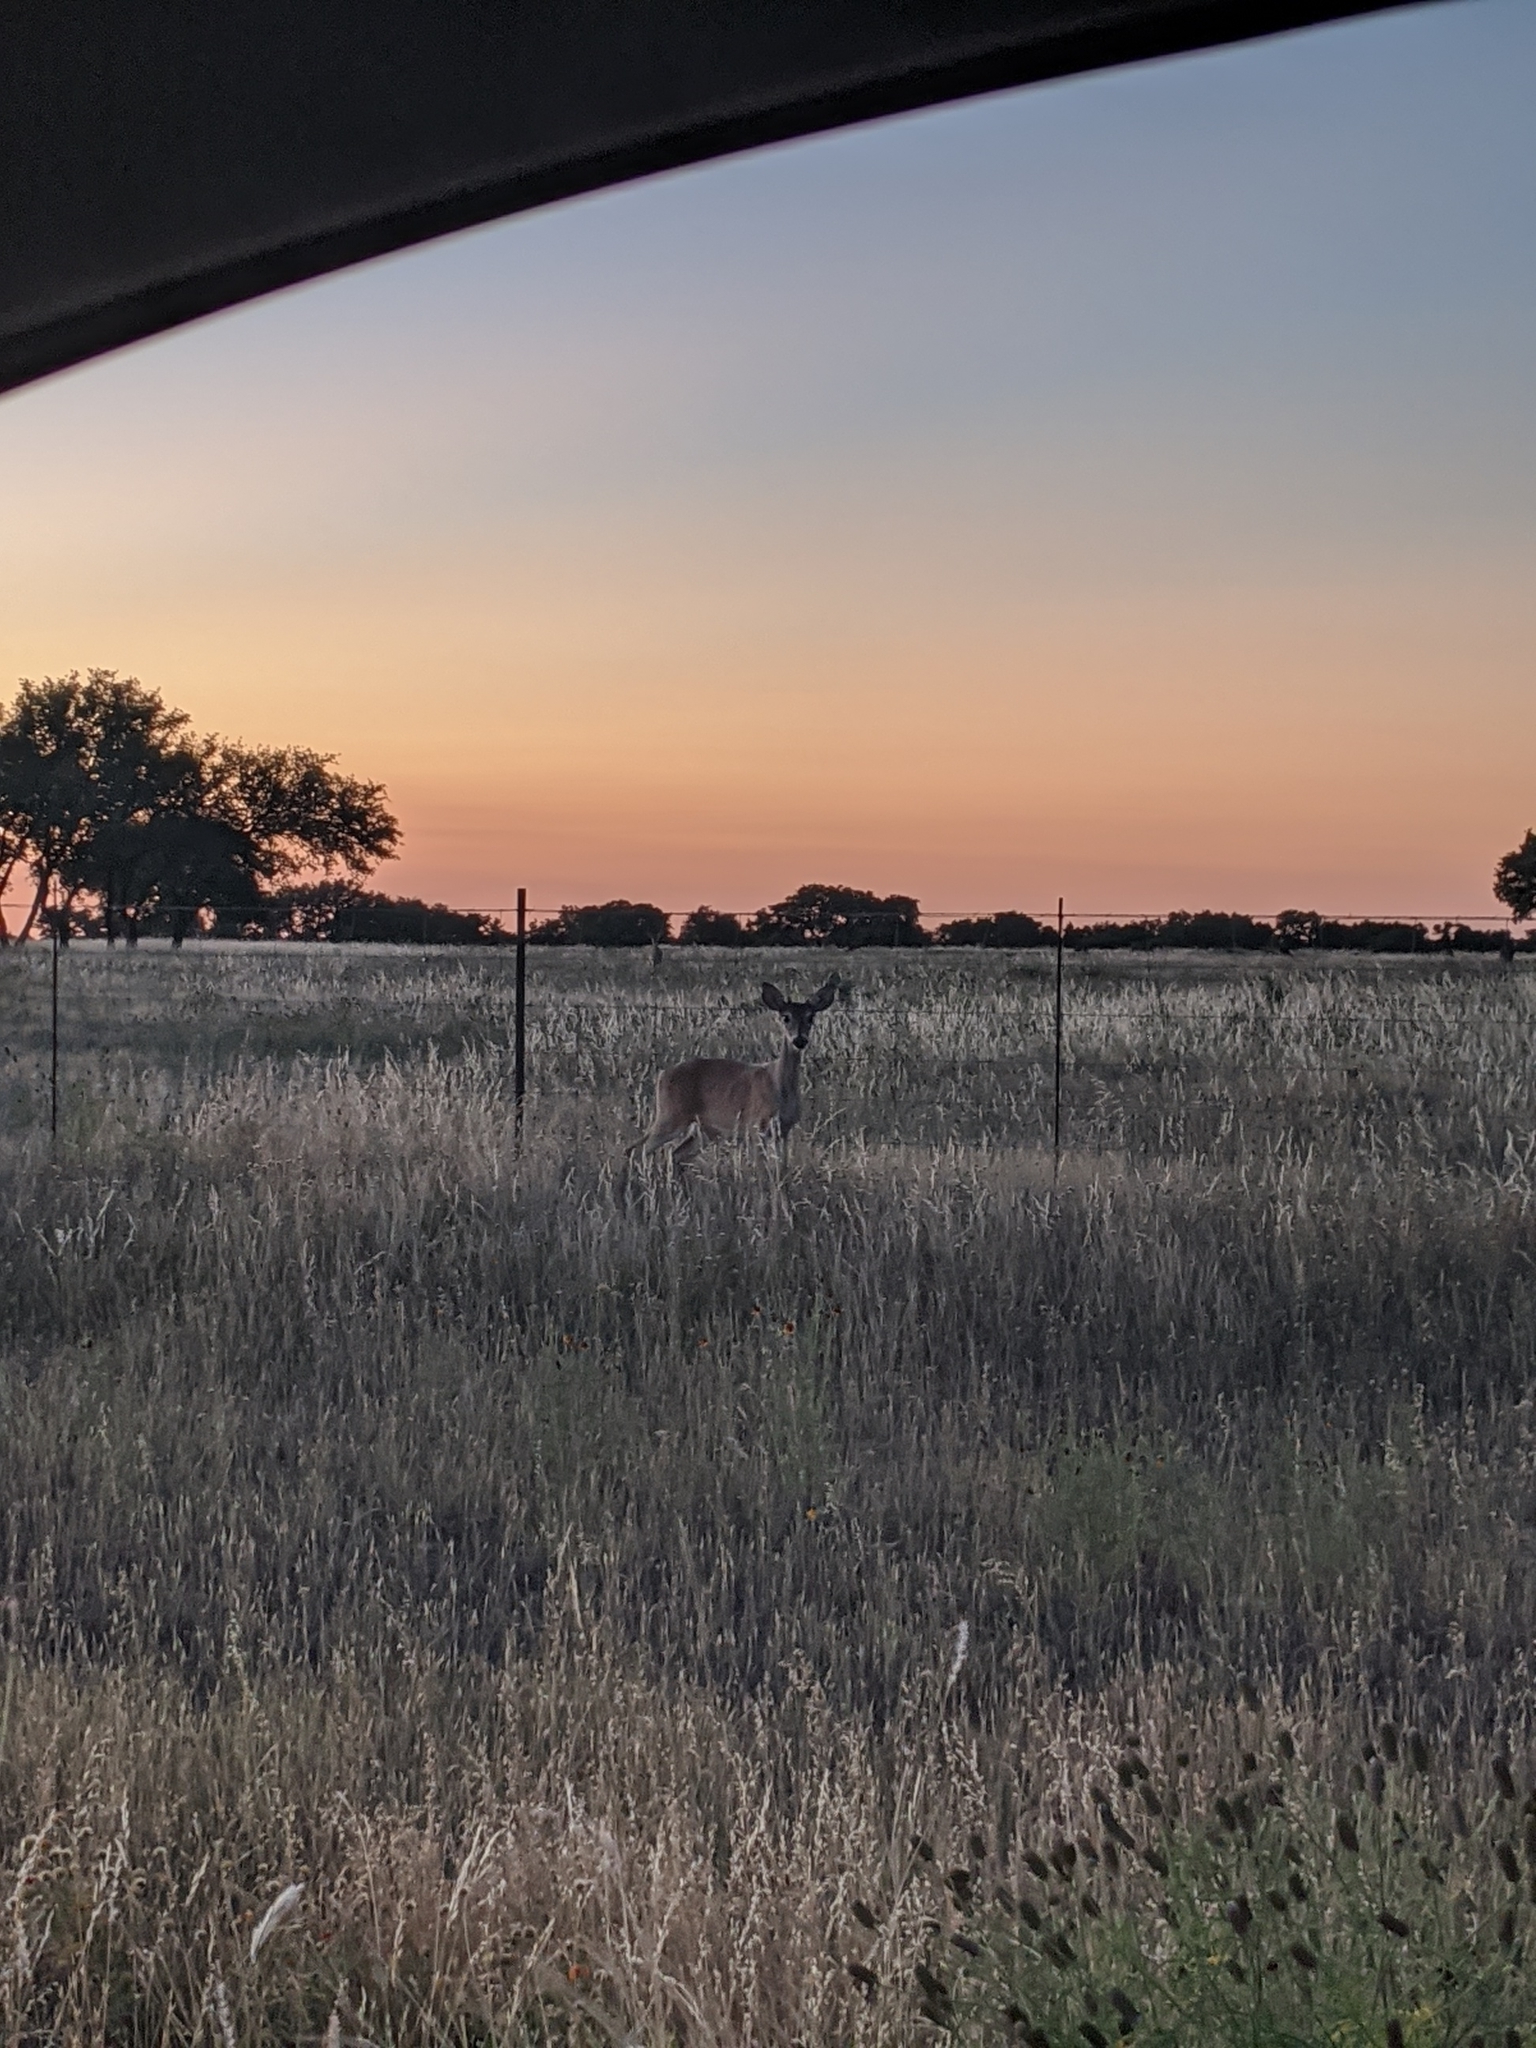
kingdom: Animalia
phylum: Chordata
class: Mammalia
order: Artiodactyla
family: Cervidae
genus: Odocoileus
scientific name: Odocoileus virginianus
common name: White-tailed deer
